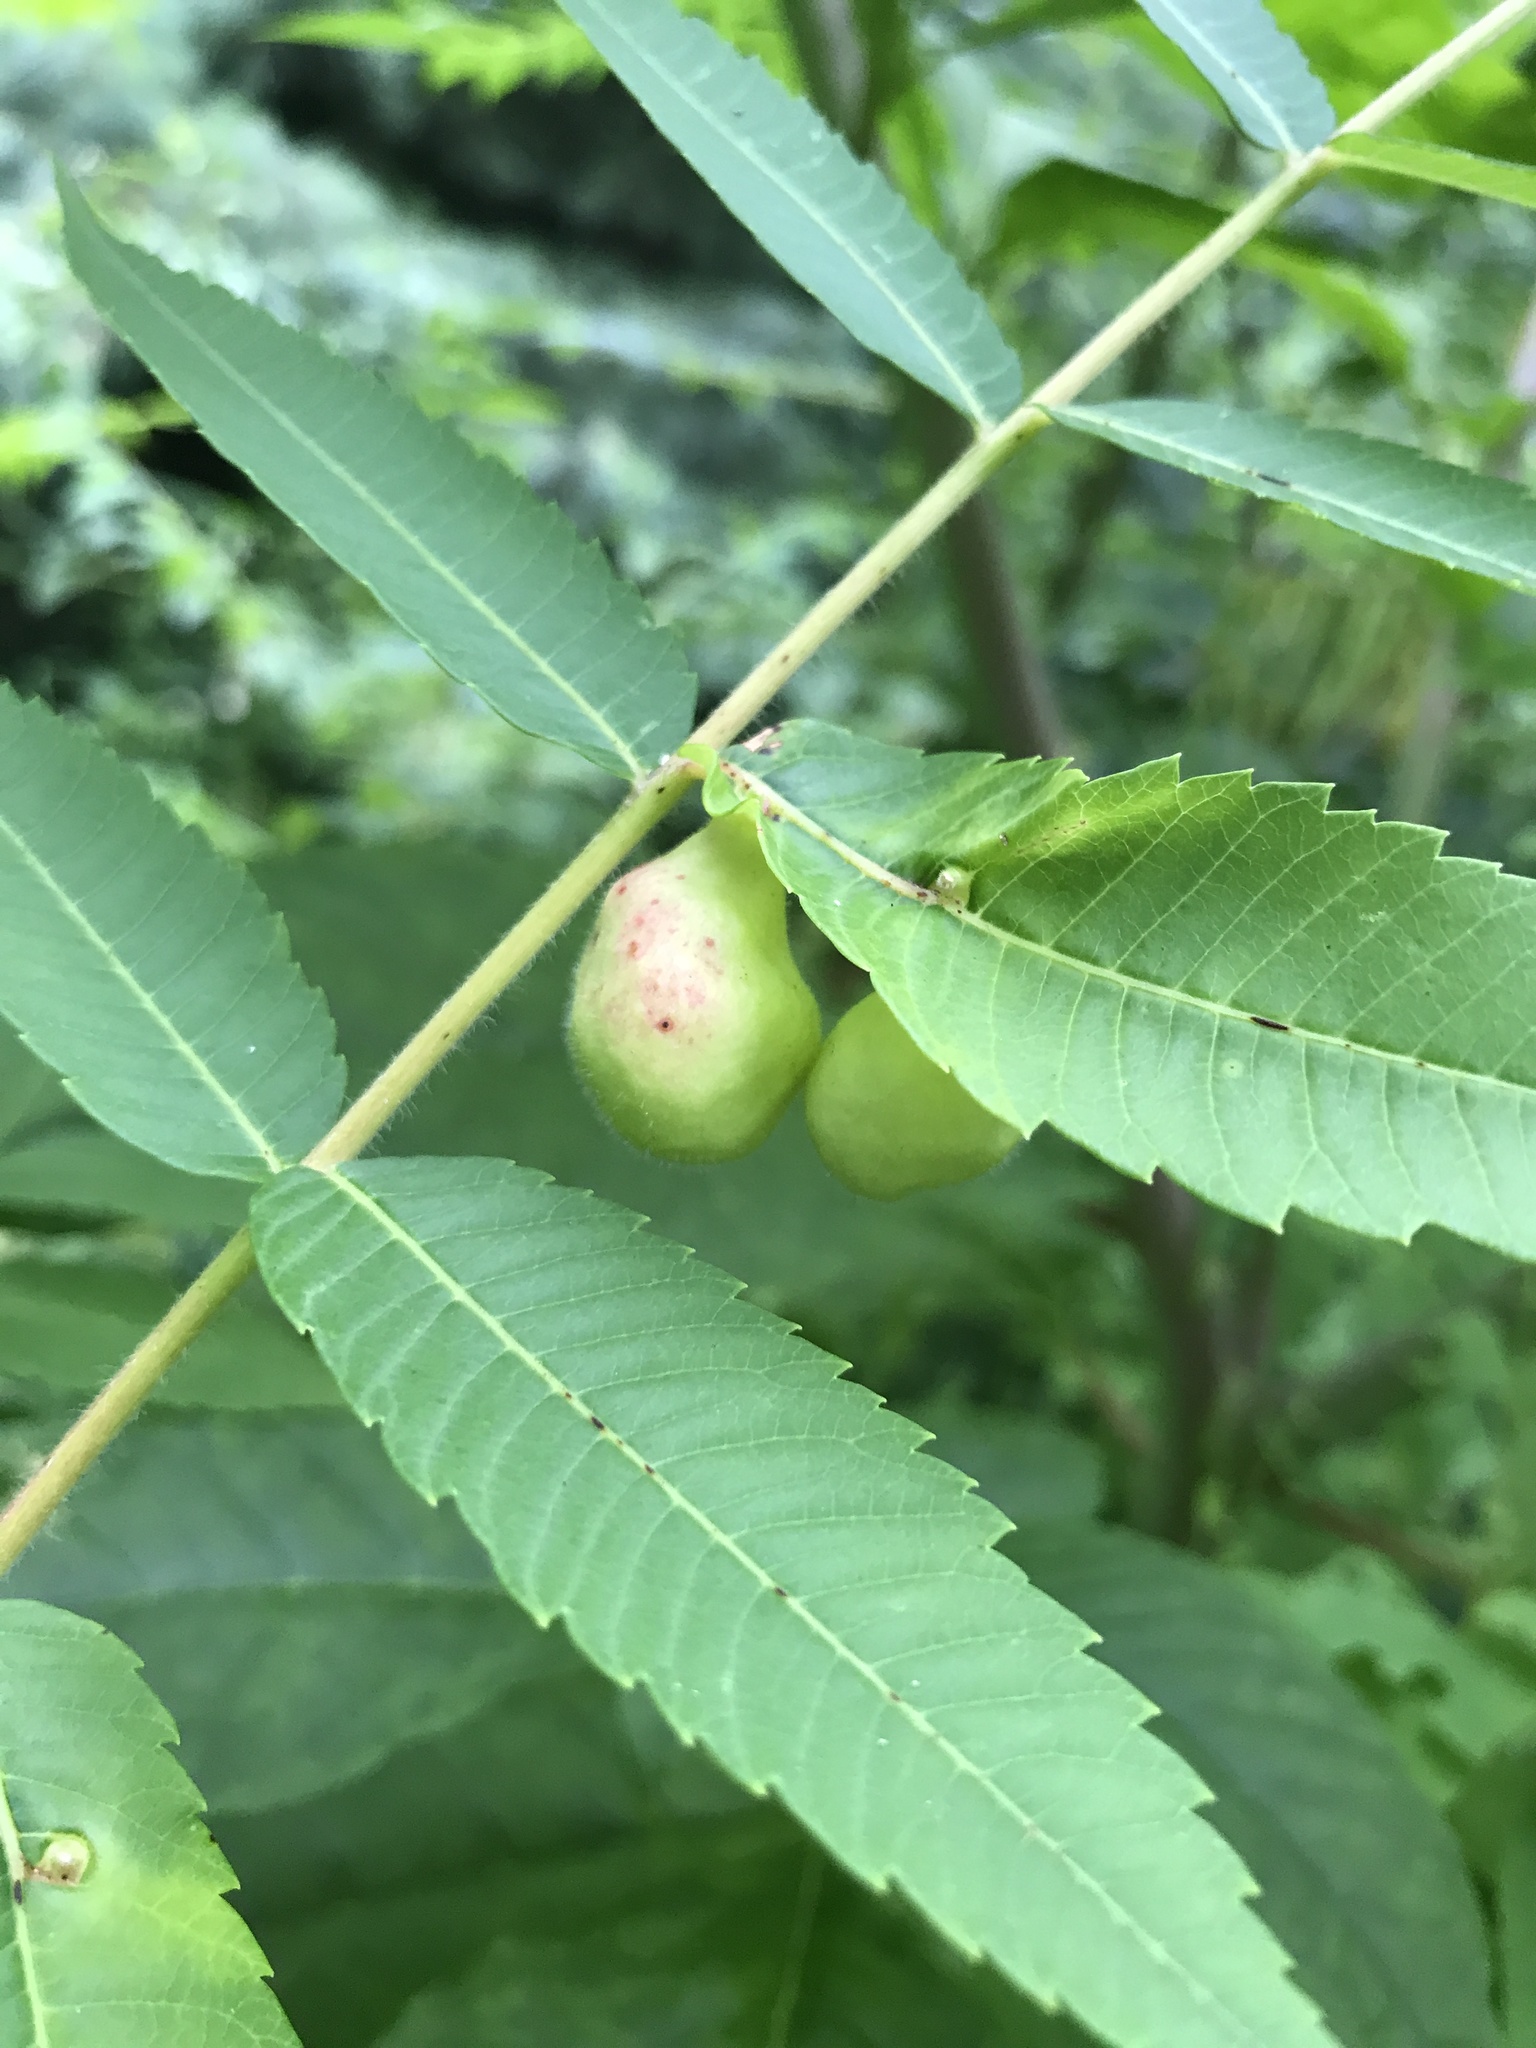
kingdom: Animalia
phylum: Arthropoda
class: Insecta
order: Hemiptera
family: Aphididae
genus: Melaphis
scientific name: Melaphis rhois
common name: Sumac gall aphid
